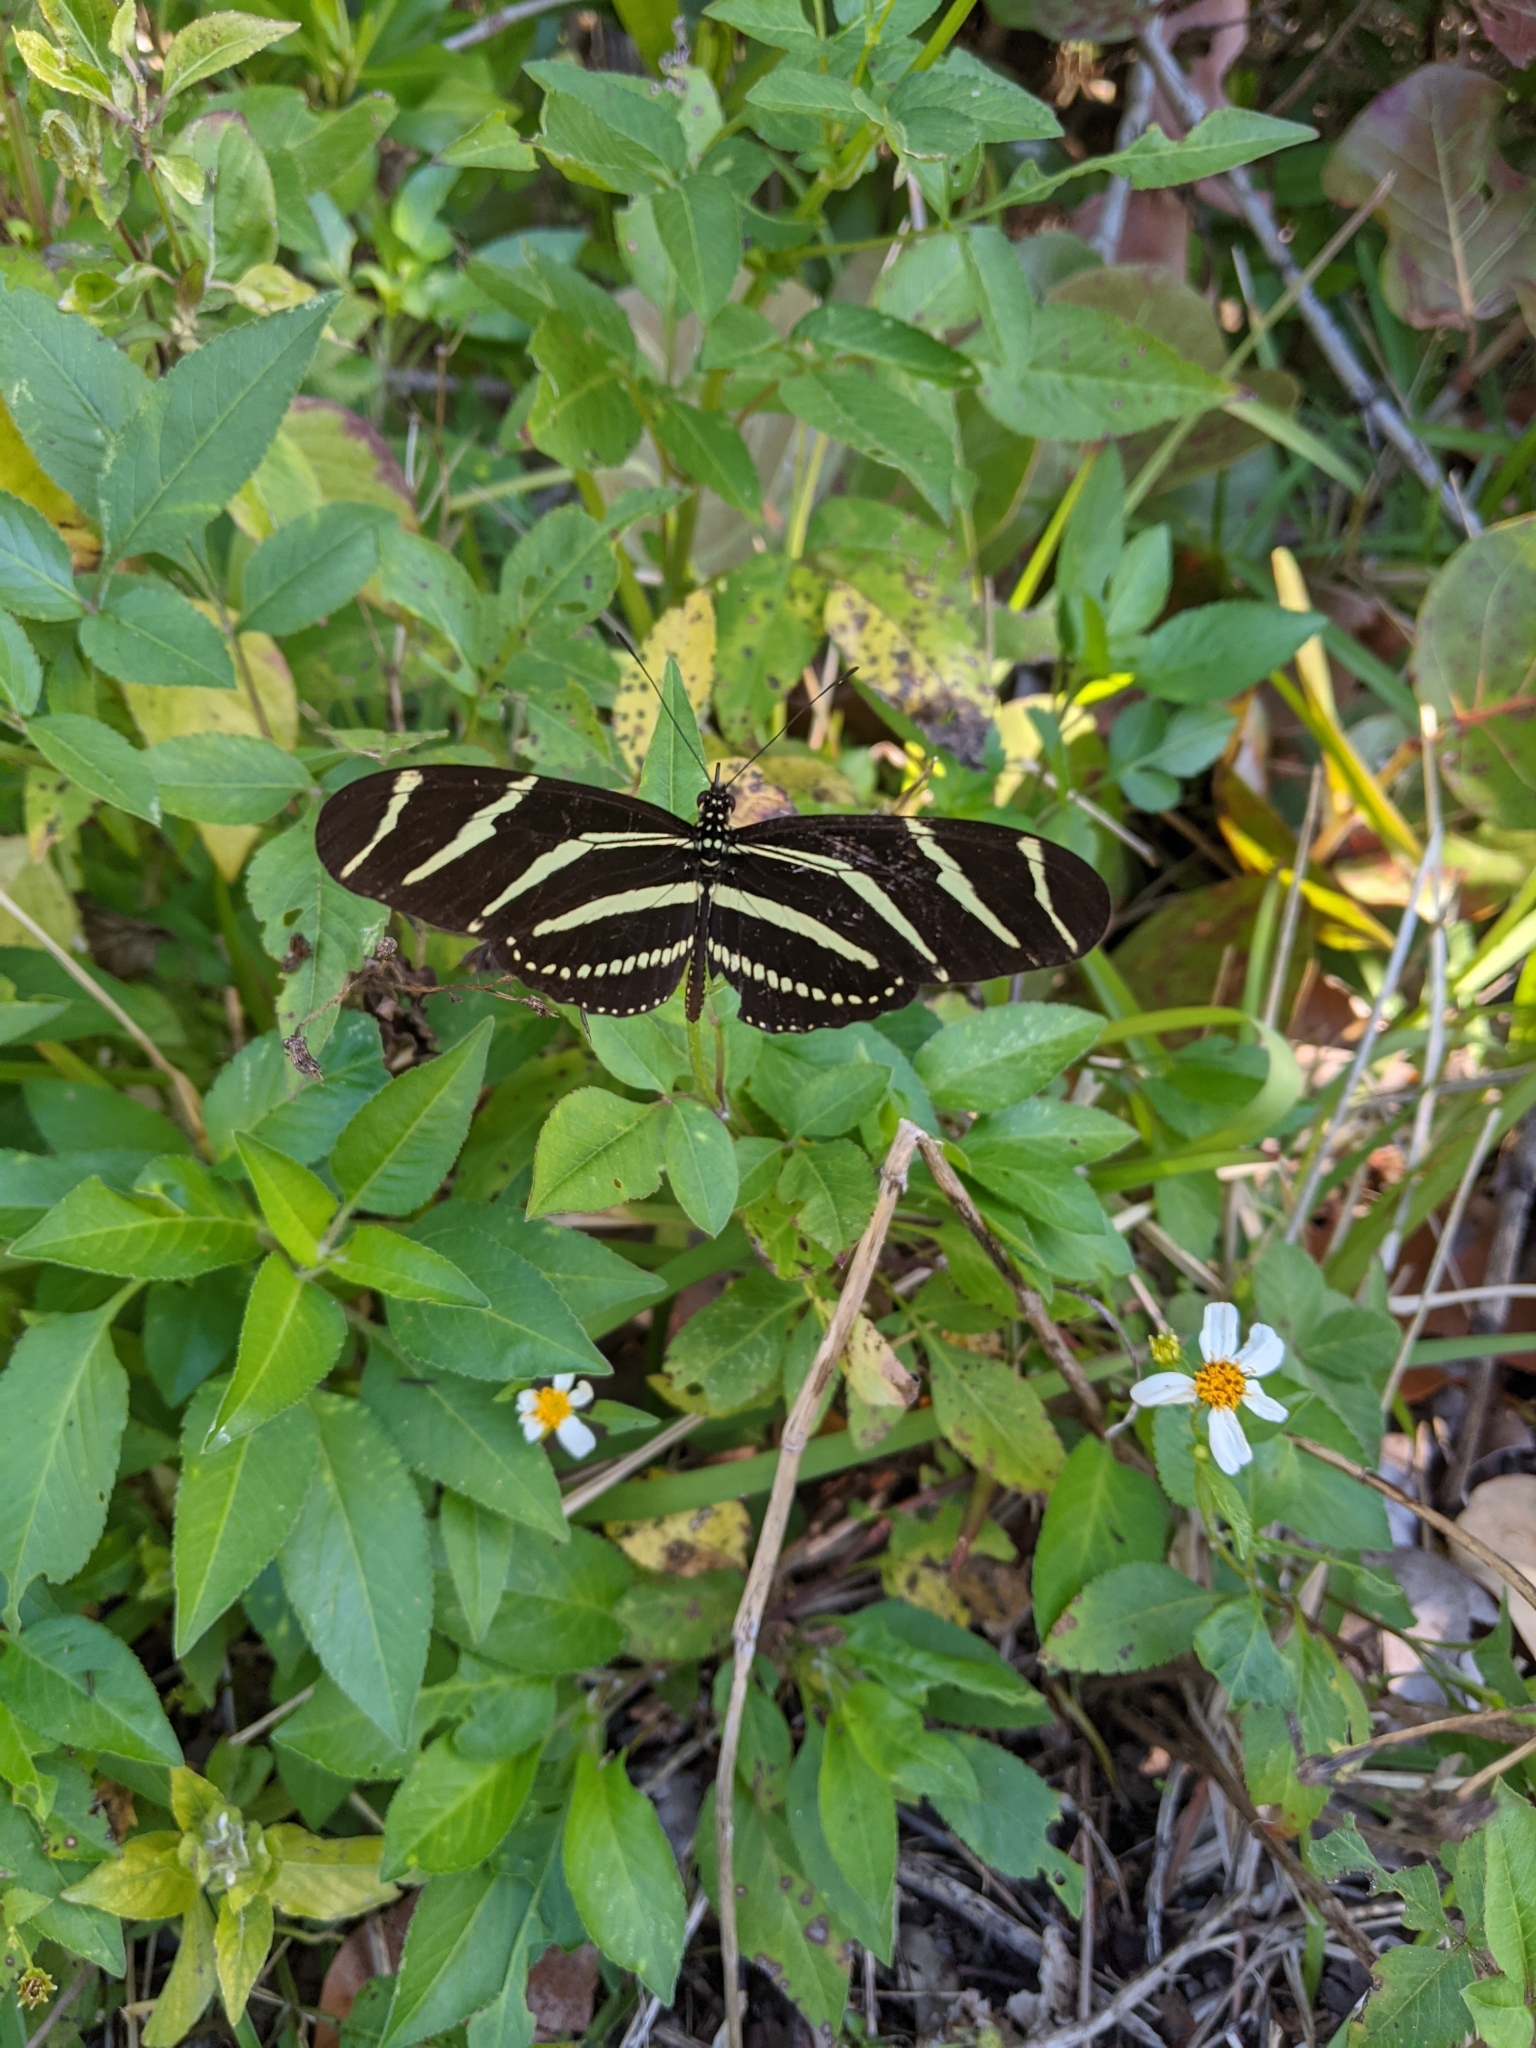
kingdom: Animalia
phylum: Arthropoda
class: Insecta
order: Lepidoptera
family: Nymphalidae
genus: Heliconius
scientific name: Heliconius charithonia
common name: Zebra long wing
